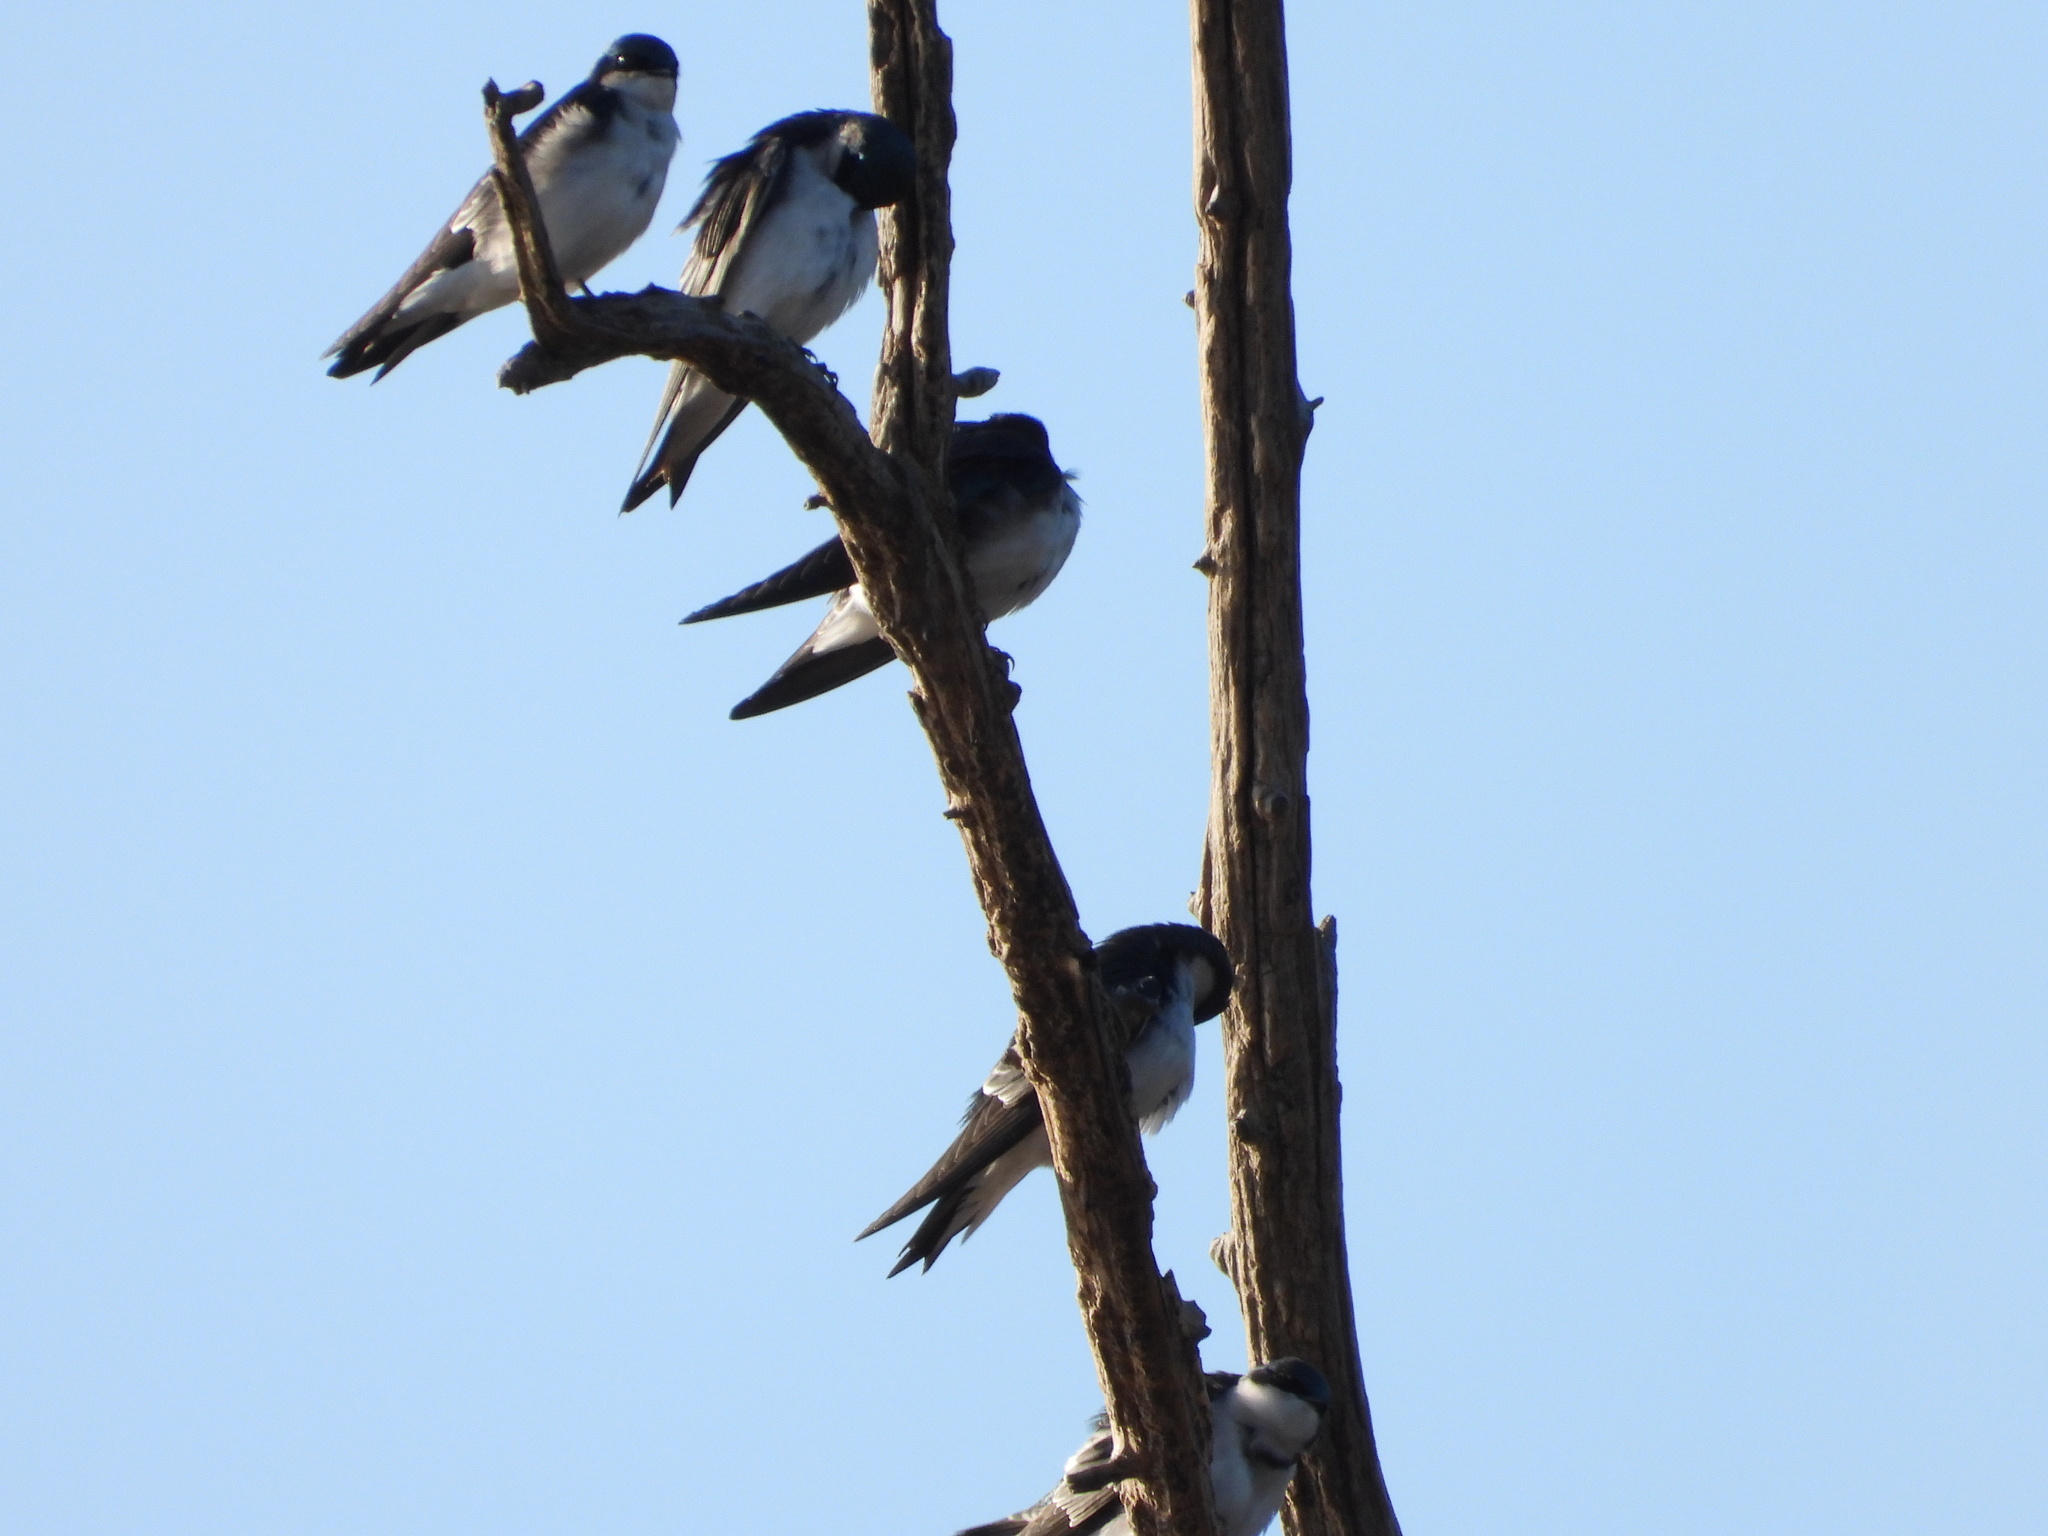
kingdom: Animalia
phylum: Chordata
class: Aves
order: Passeriformes
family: Hirundinidae
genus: Tachycineta
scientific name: Tachycineta bicolor
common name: Tree swallow
